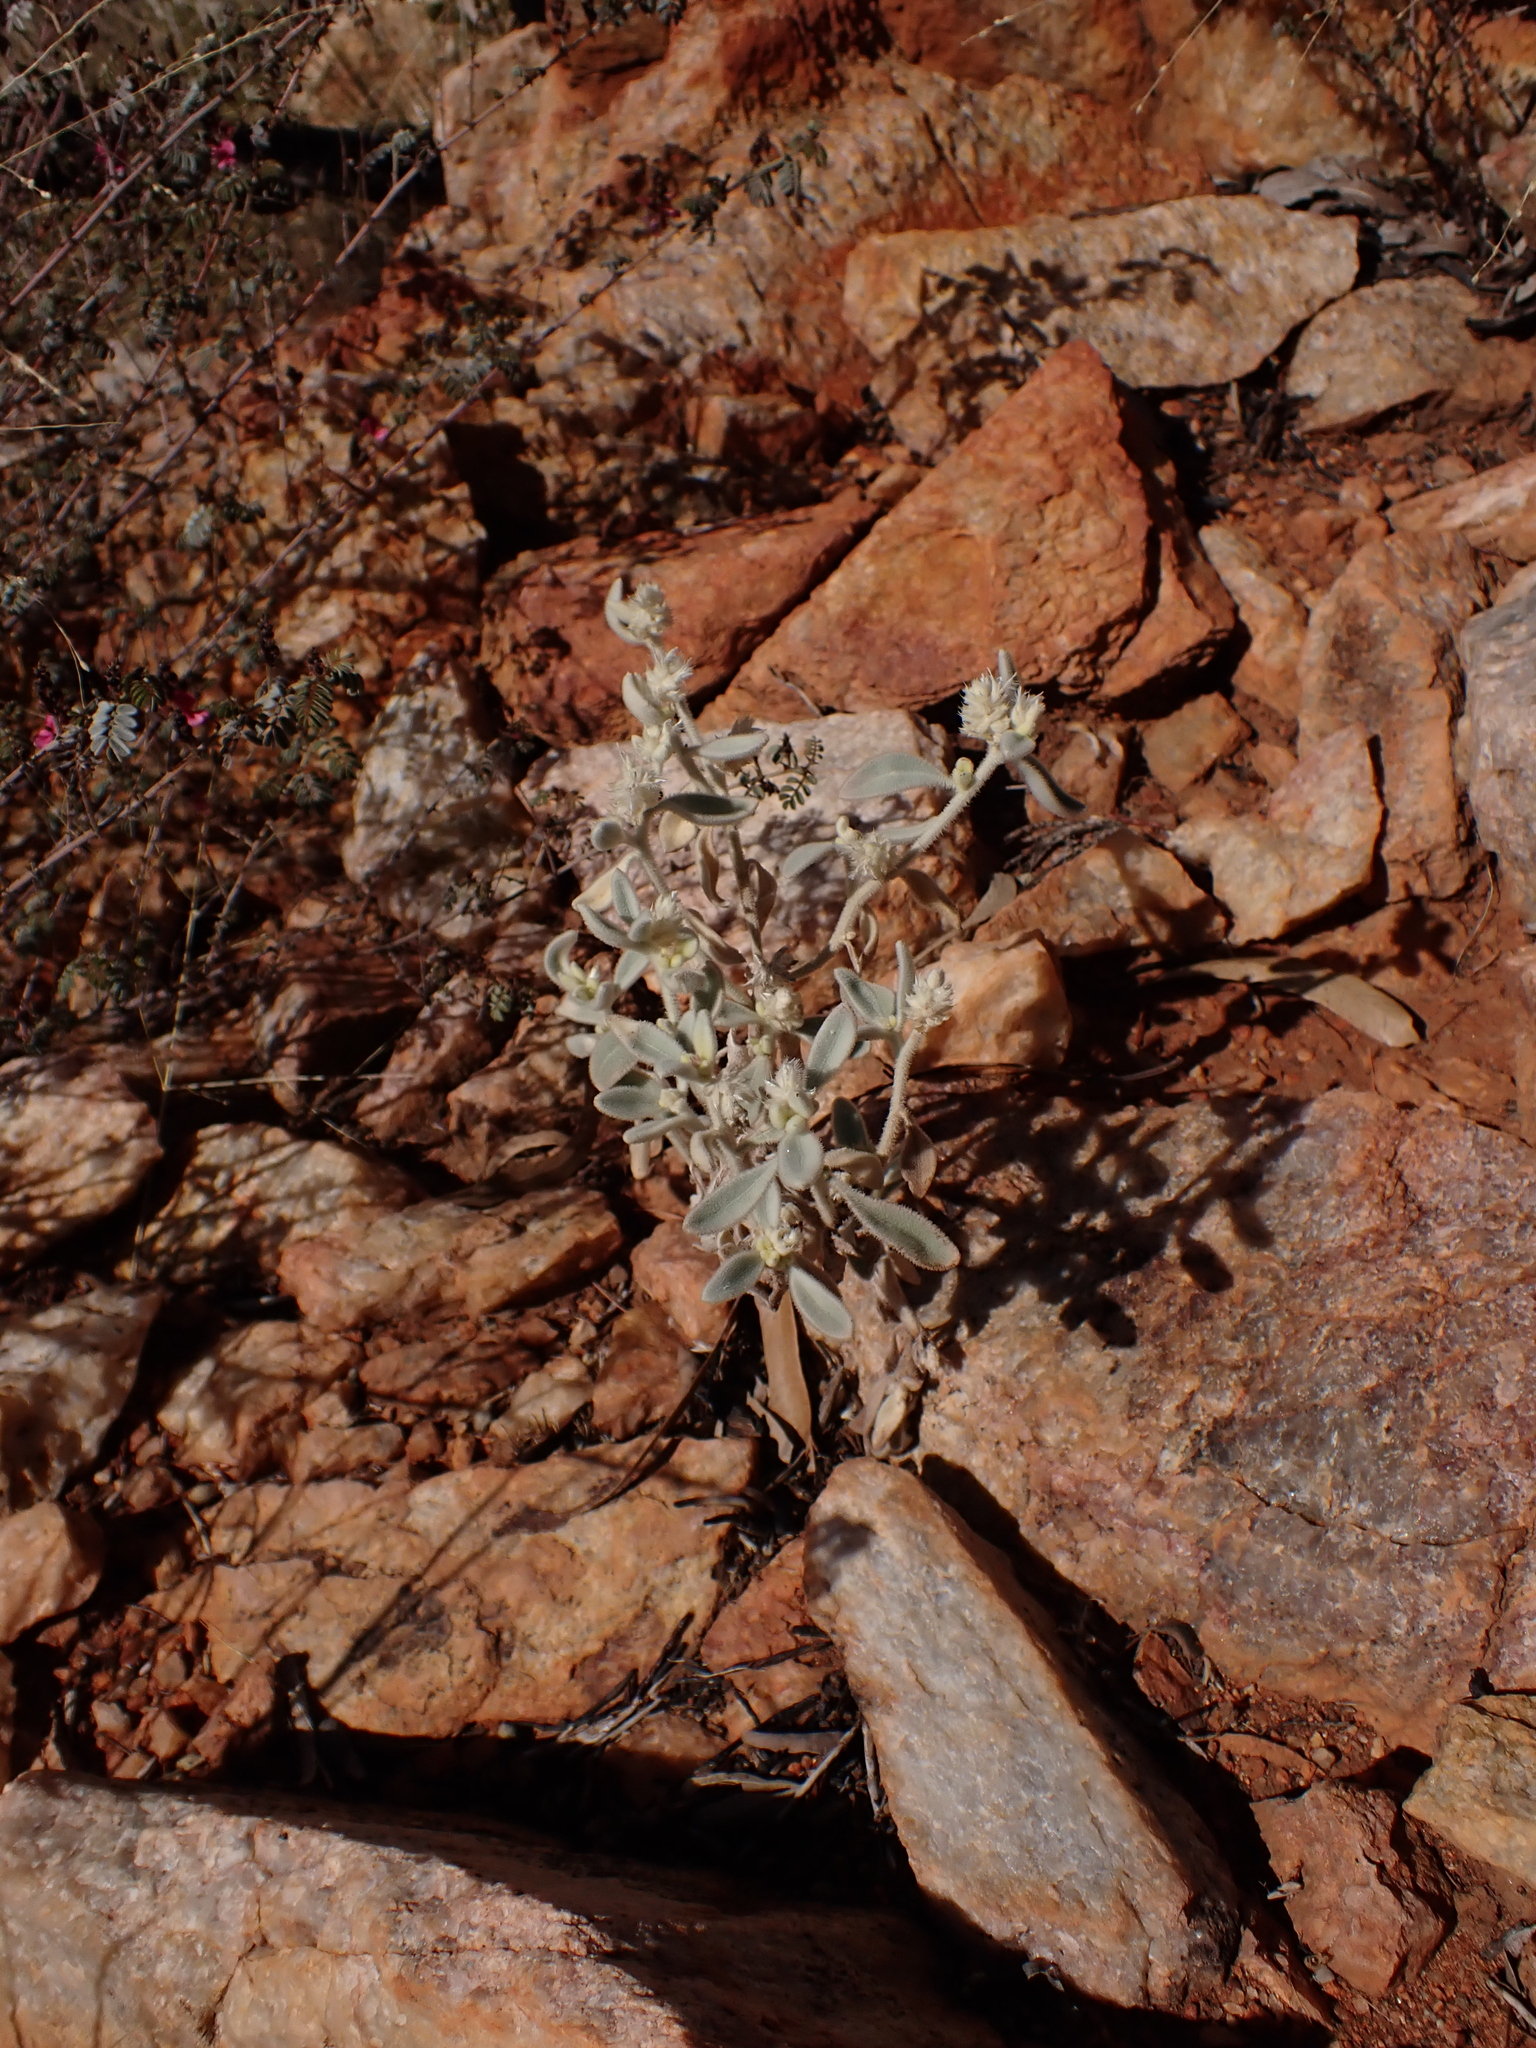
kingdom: Plantae
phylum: Tracheophyta
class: Magnoliopsida
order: Caryophyllales
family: Amaranthaceae
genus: Ptilotus
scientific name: Ptilotus incanus
